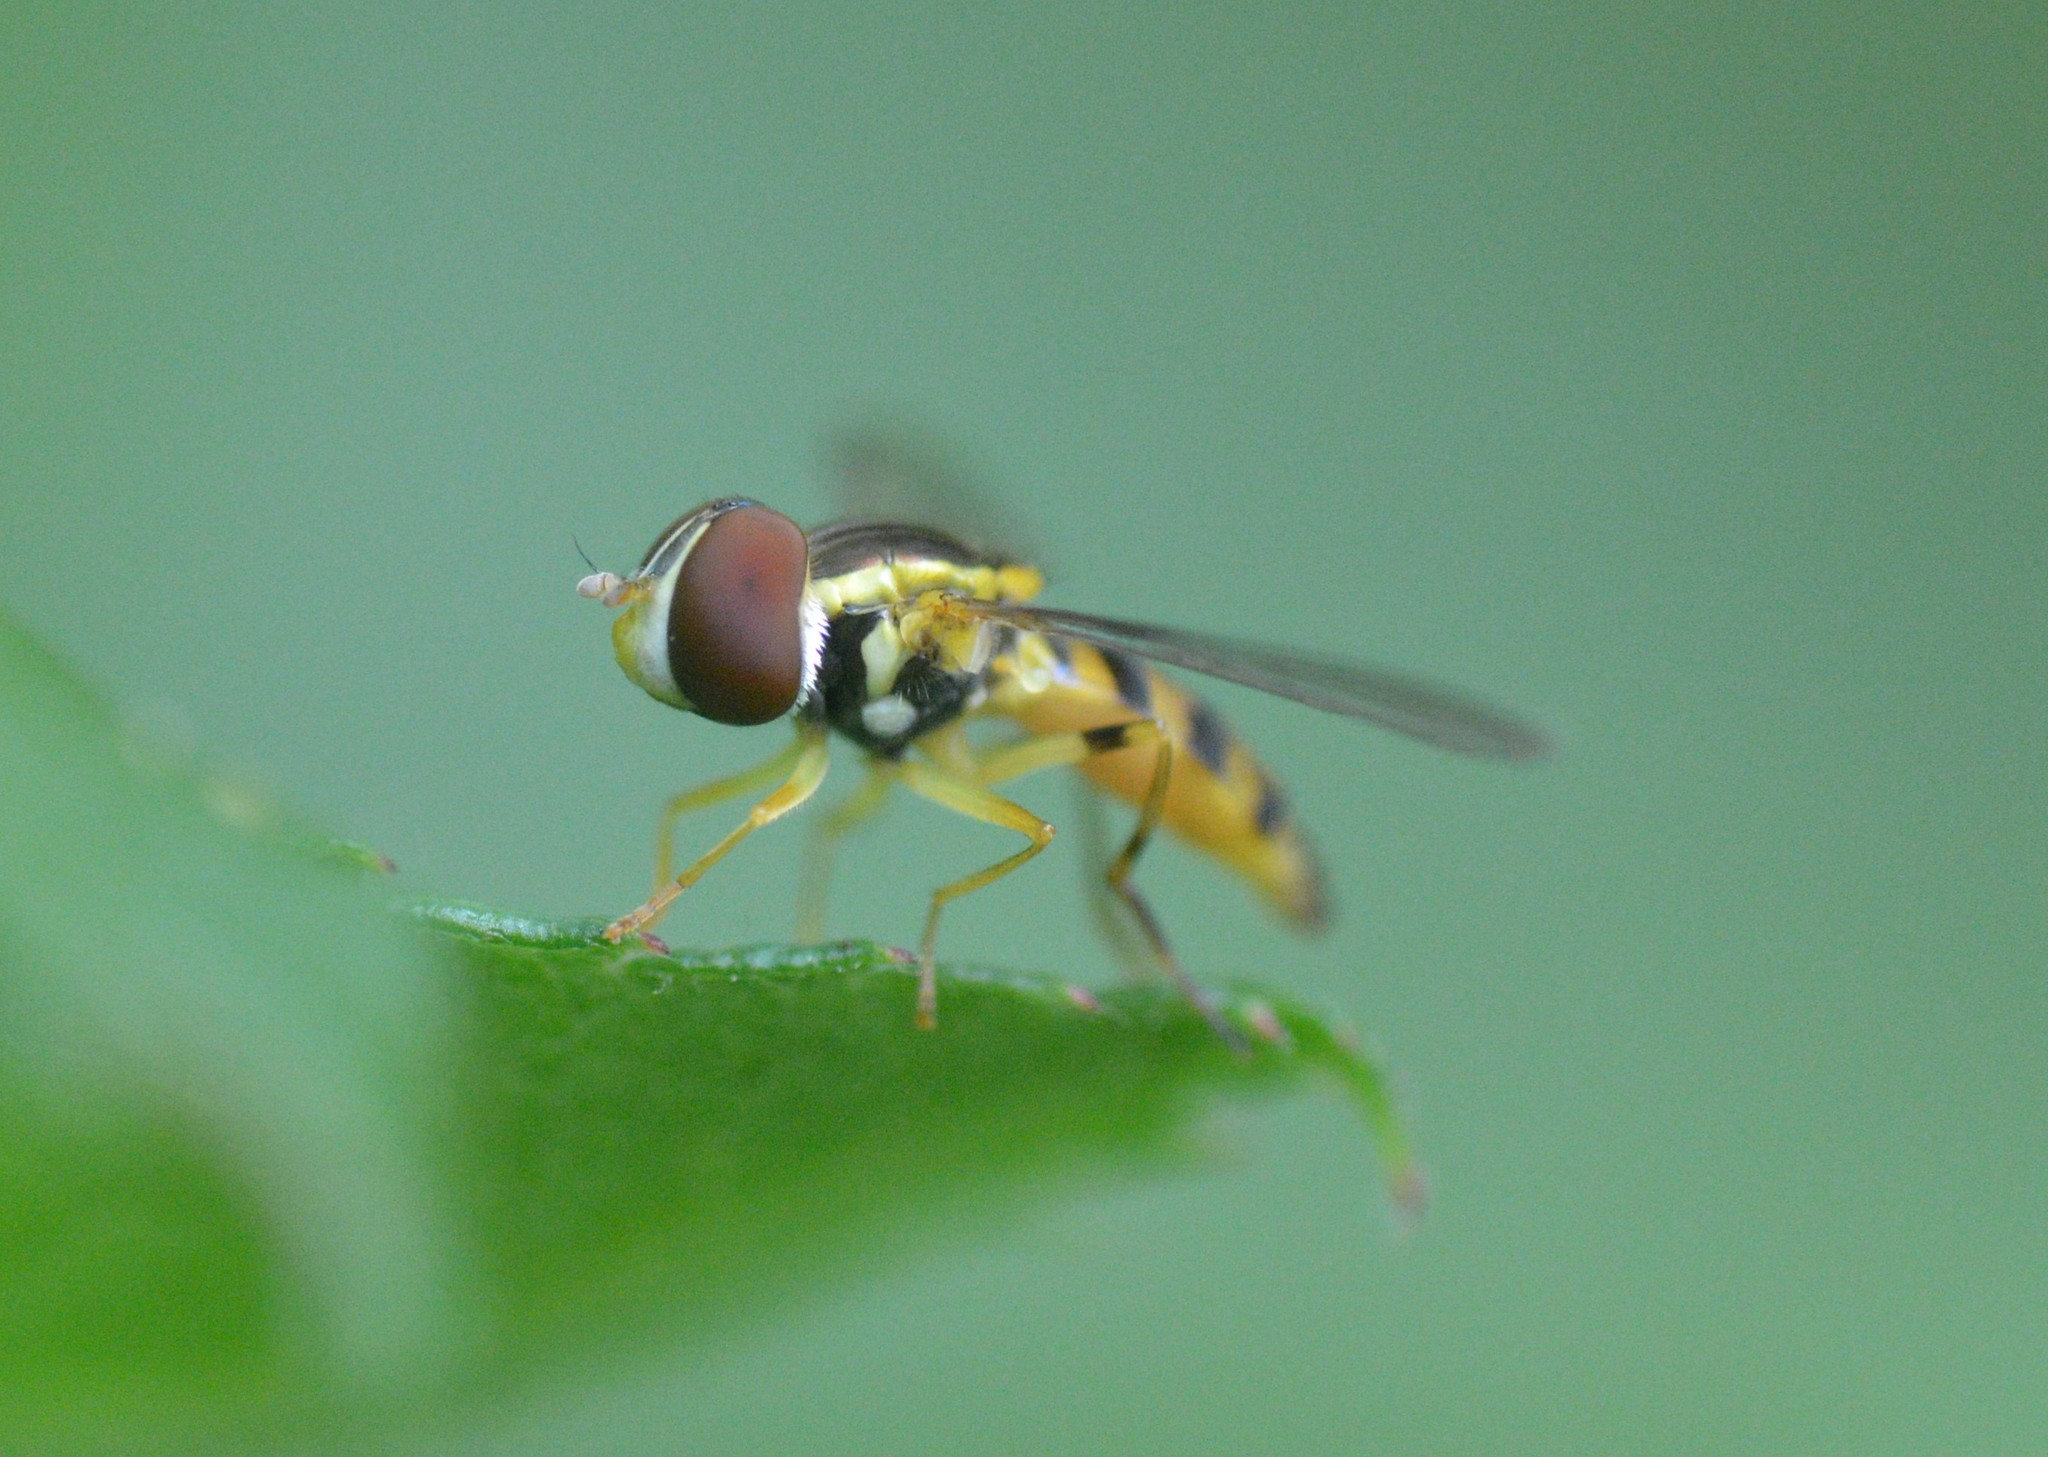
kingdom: Animalia
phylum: Arthropoda
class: Insecta
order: Diptera
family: Syrphidae
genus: Toxomerus
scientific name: Toxomerus geminatus
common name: Eastern calligrapher
